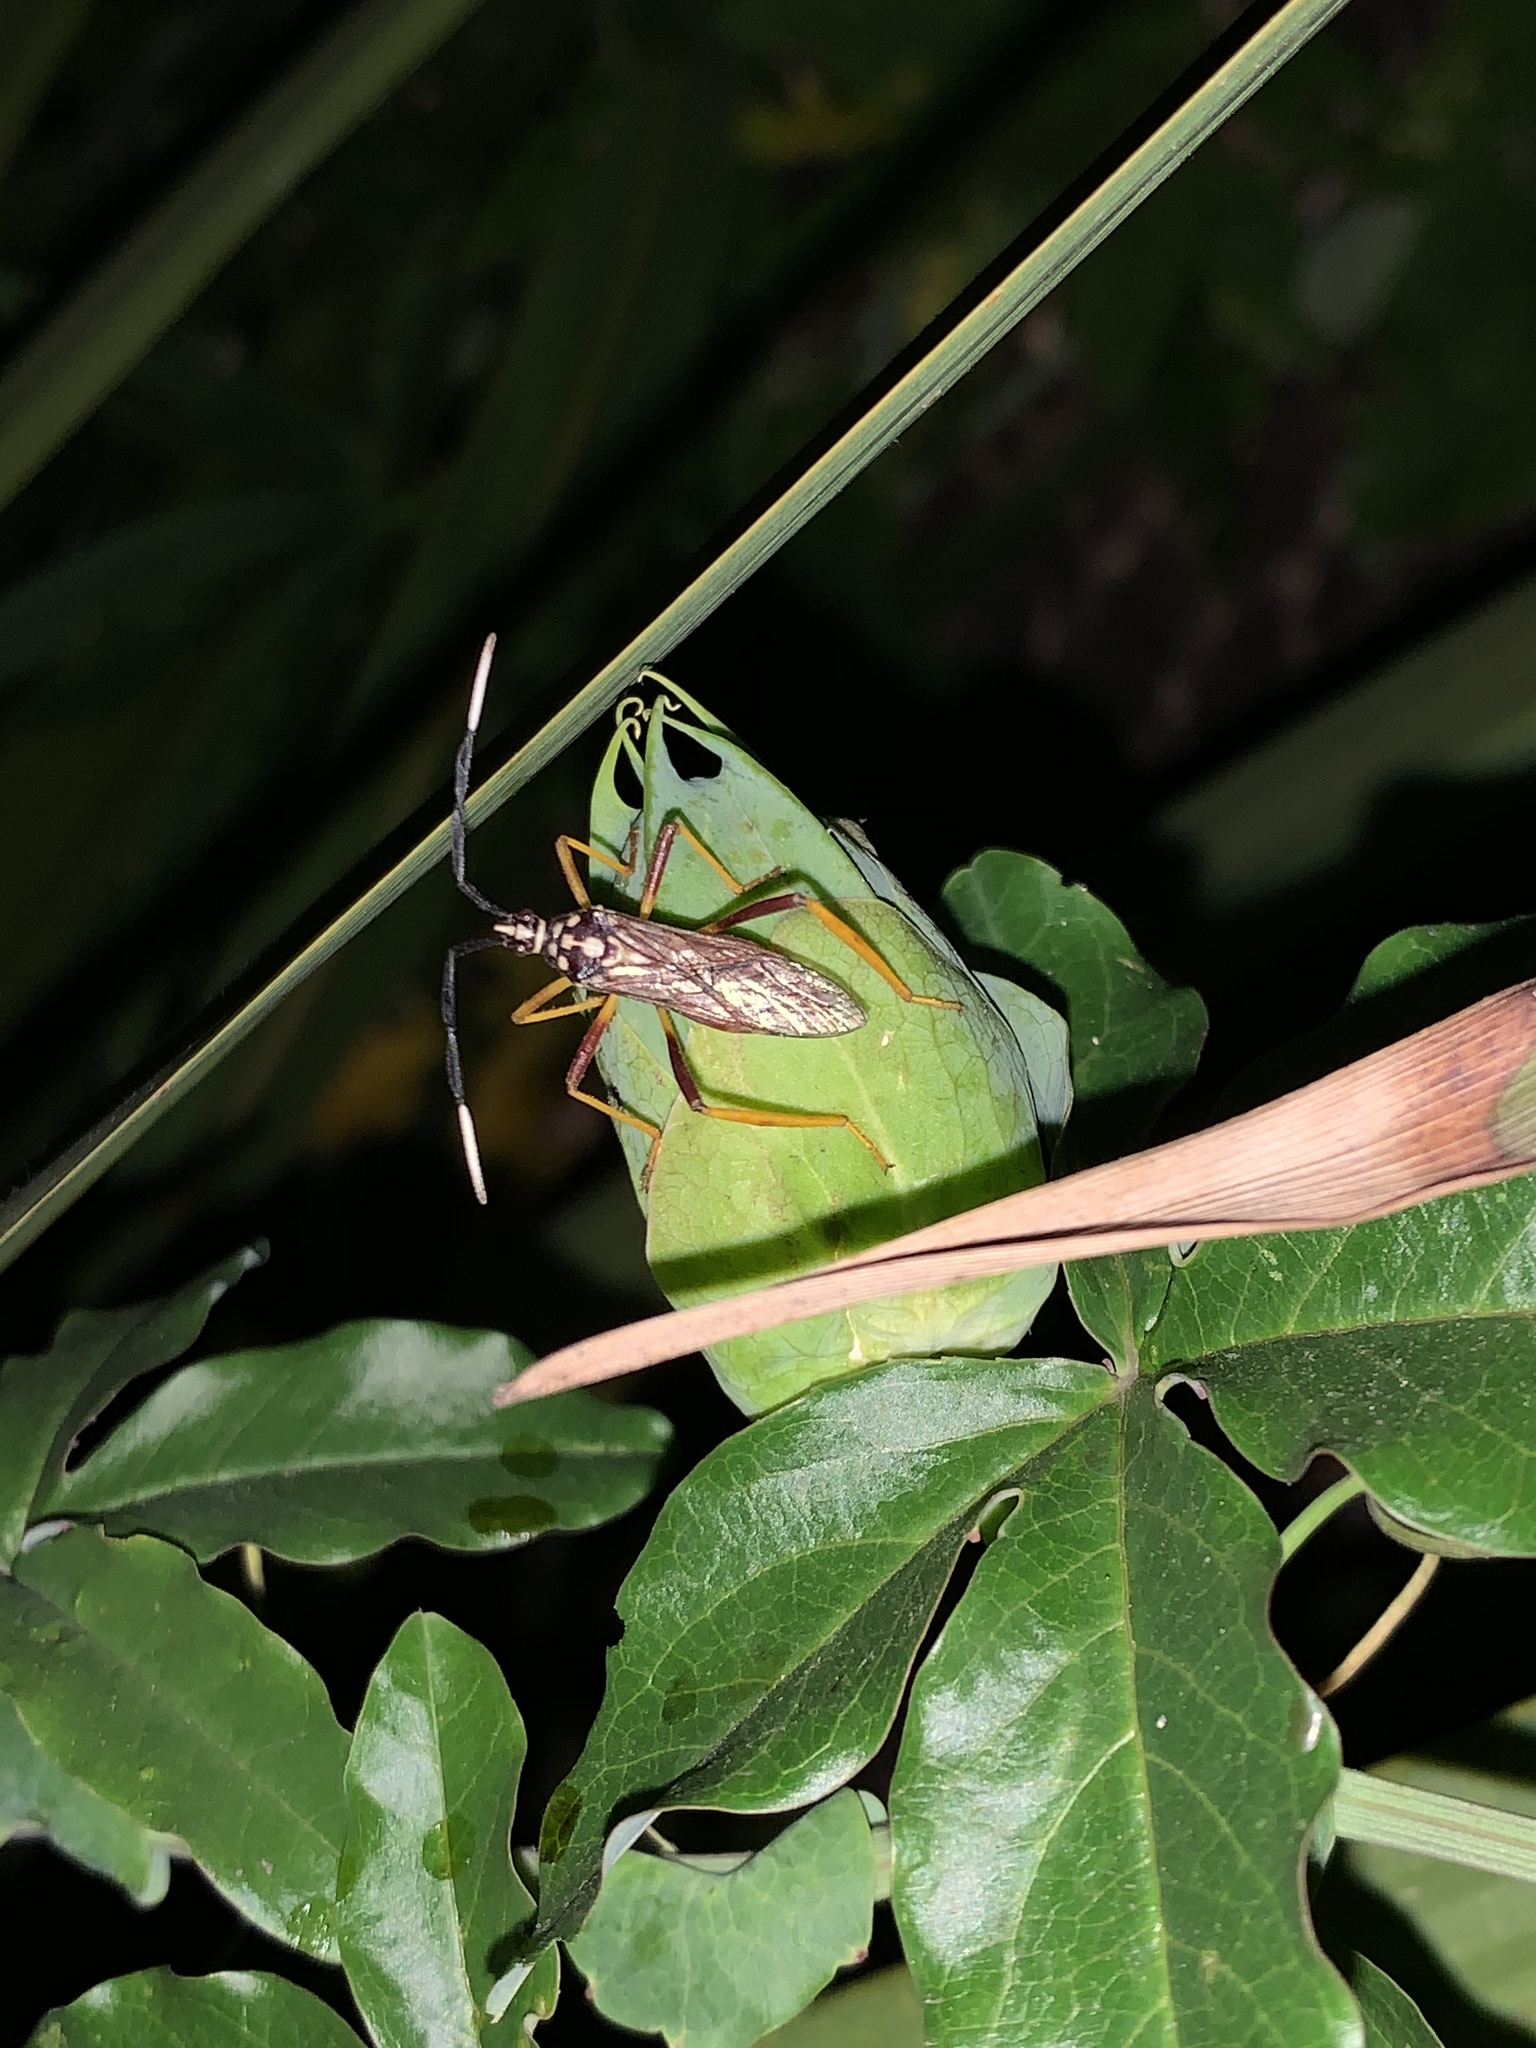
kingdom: Animalia
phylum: Arthropoda
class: Insecta
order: Hemiptera
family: Coreidae
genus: Holhymenia
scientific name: Holhymenia histrio
